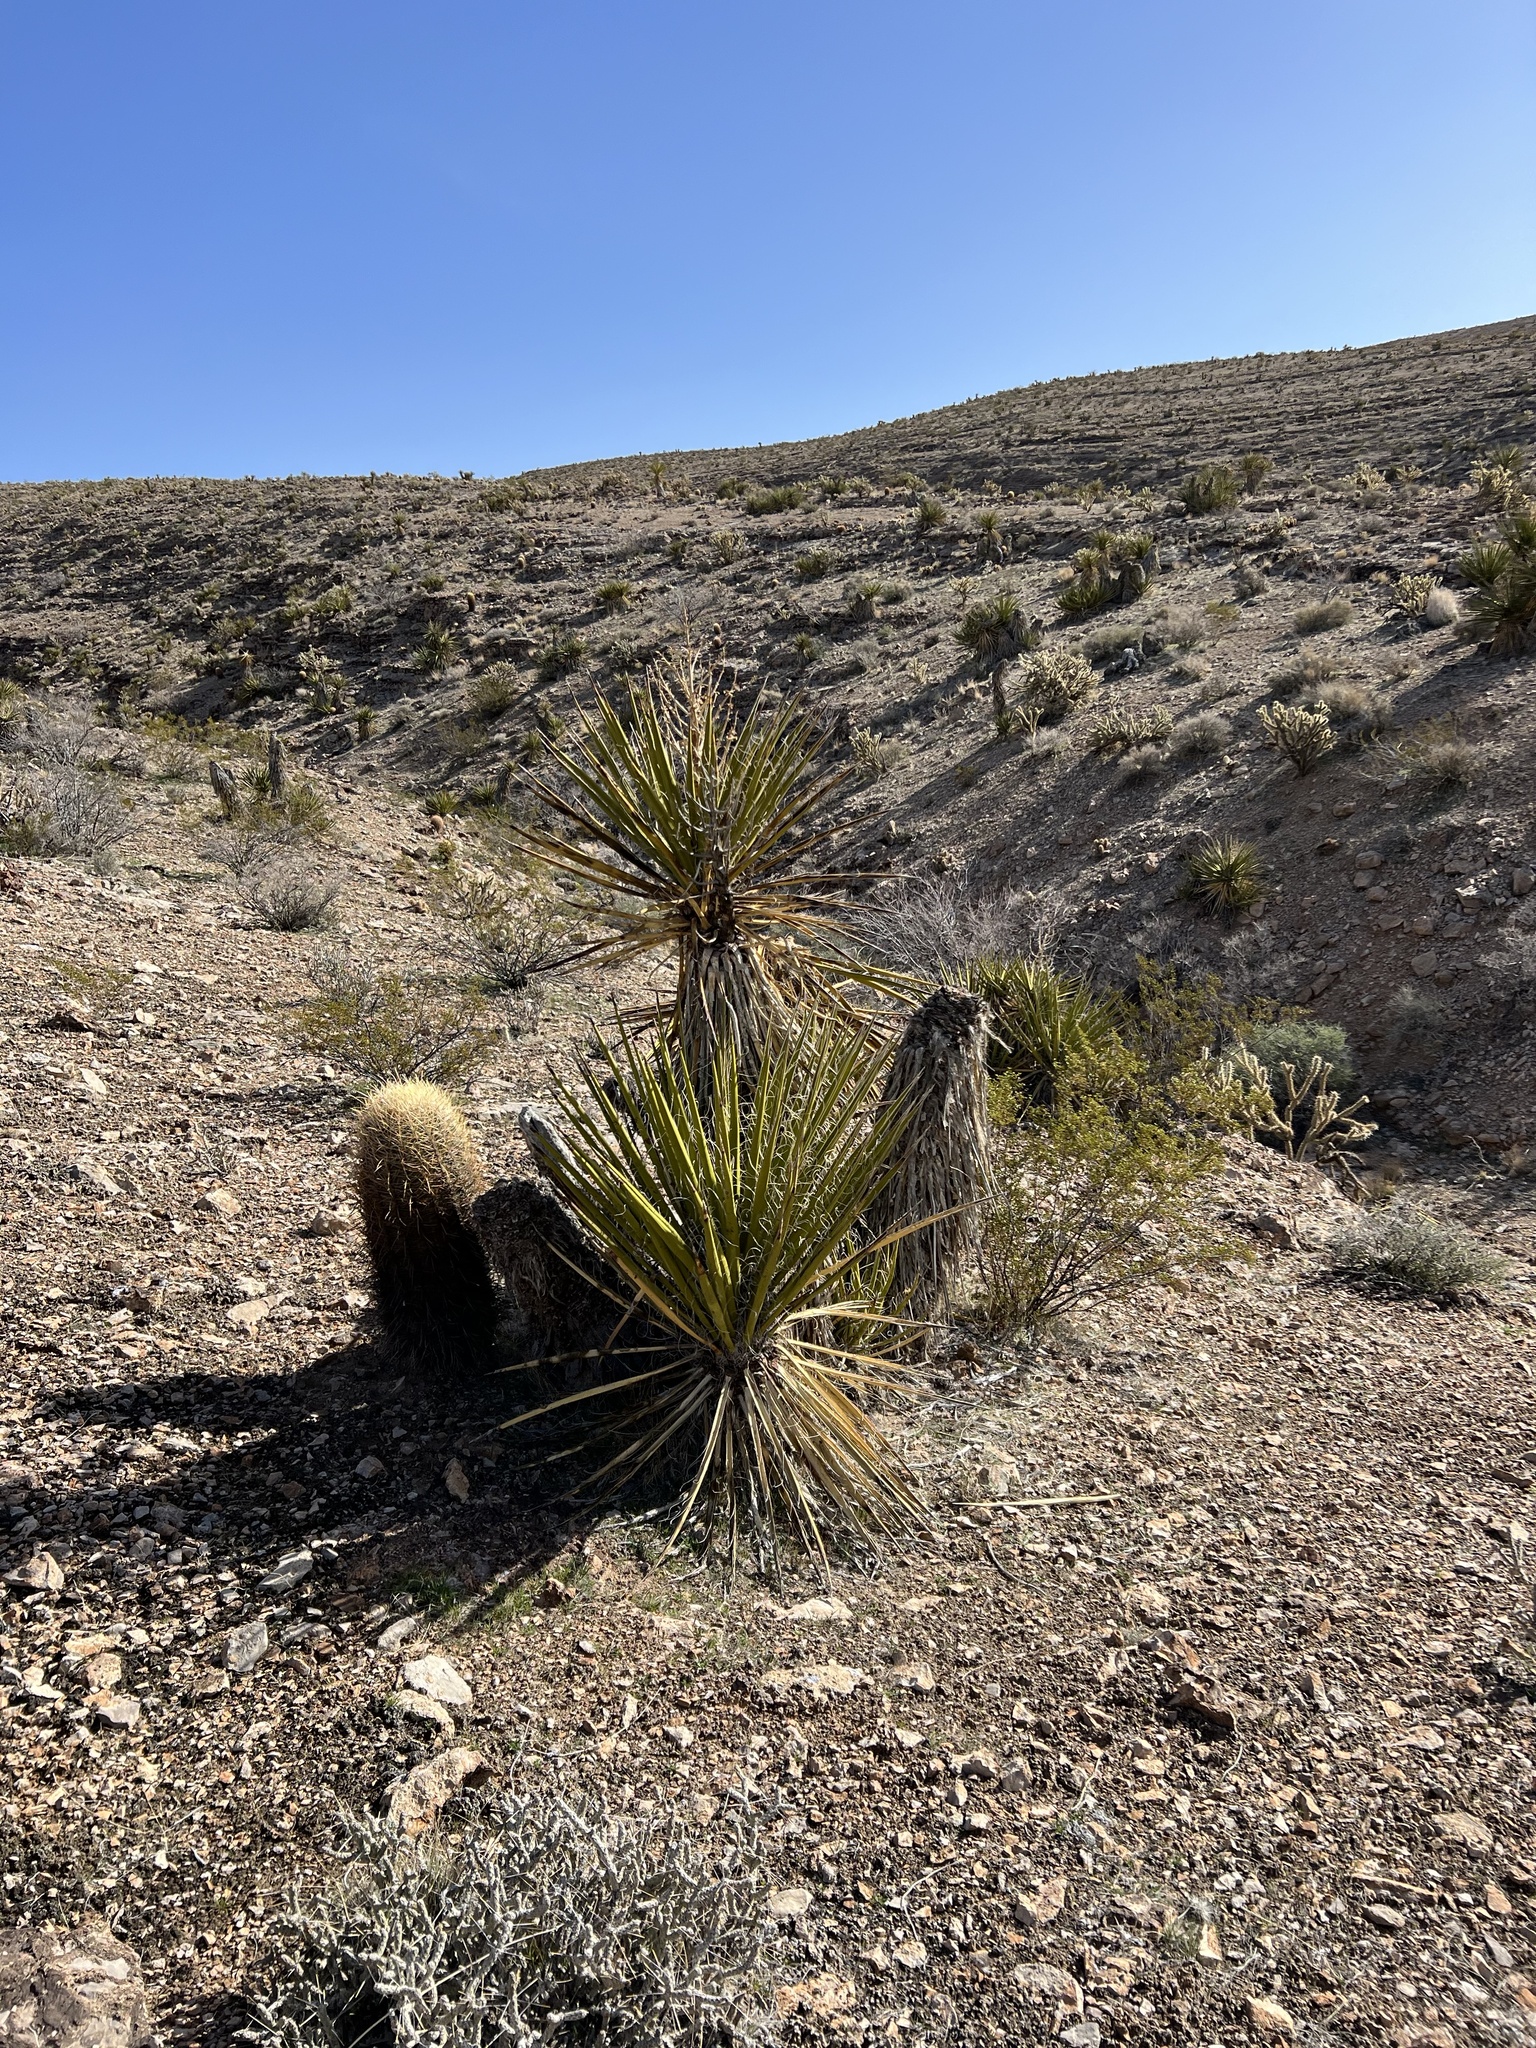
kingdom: Plantae
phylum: Tracheophyta
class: Magnoliopsida
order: Caryophyllales
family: Cactaceae
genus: Ferocactus
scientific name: Ferocactus cylindraceus
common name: California barrel cactus
